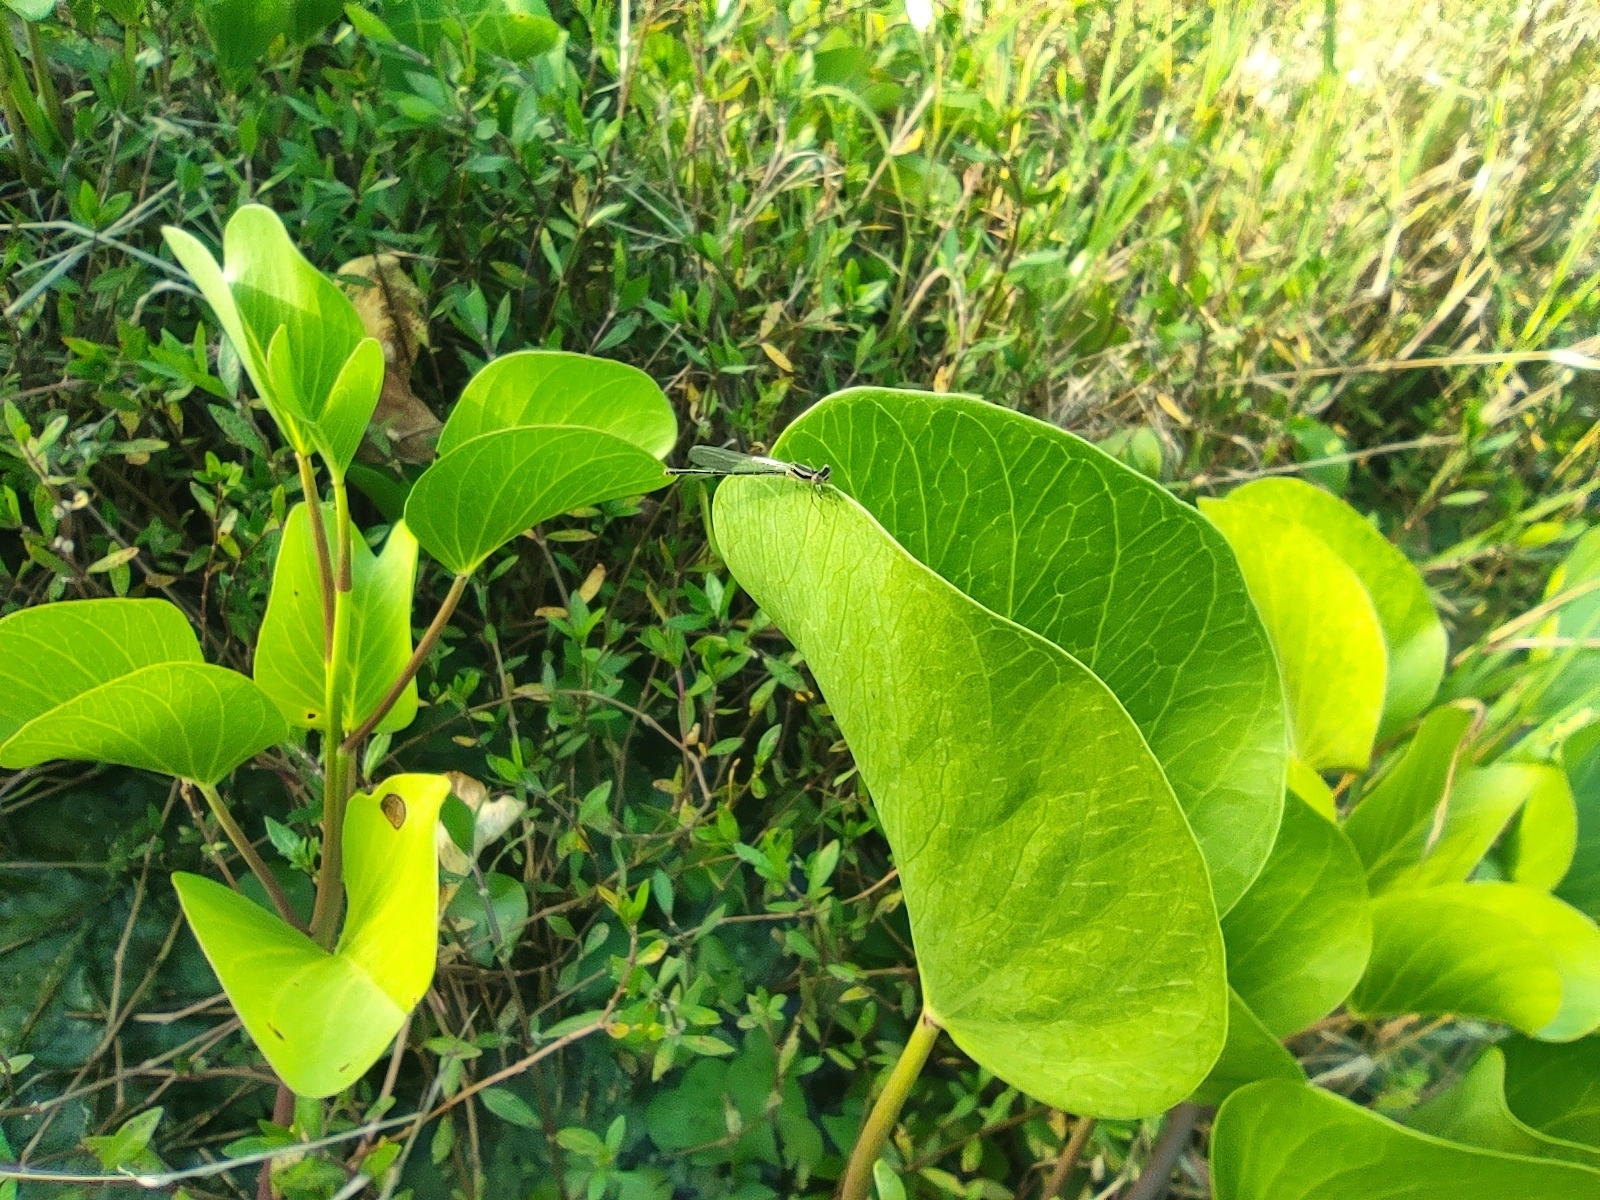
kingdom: Plantae
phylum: Tracheophyta
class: Magnoliopsida
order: Solanales
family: Convolvulaceae
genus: Ipomoea
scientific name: Ipomoea pes-caprae
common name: Beach morning glory
